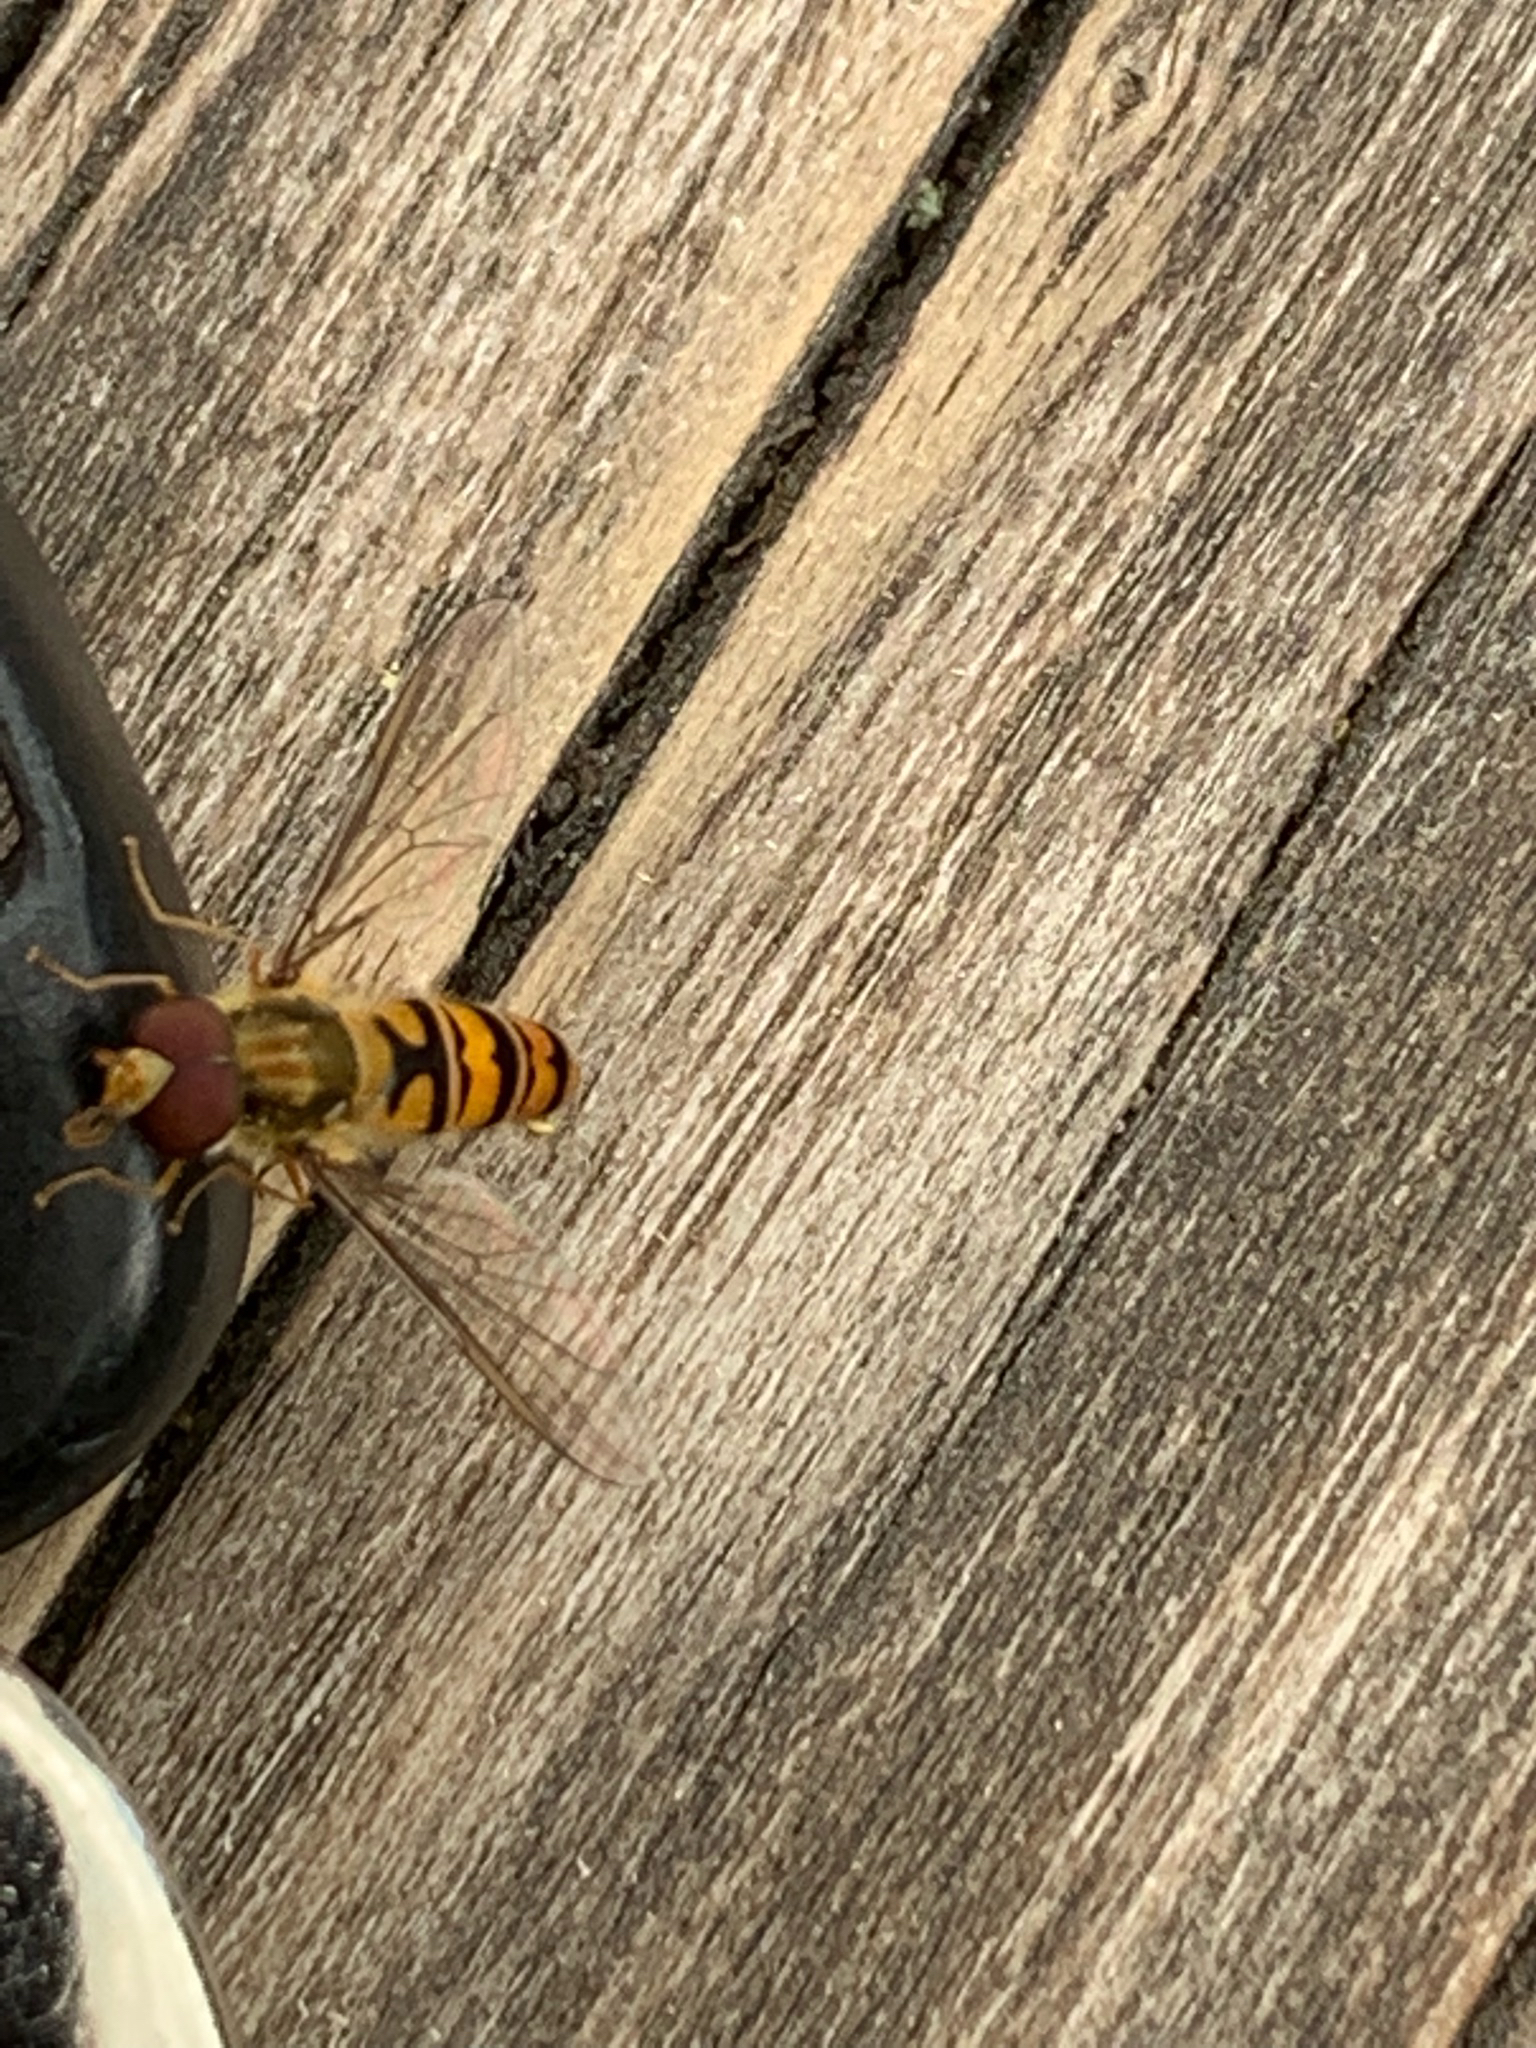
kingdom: Animalia
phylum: Arthropoda
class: Insecta
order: Diptera
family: Syrphidae
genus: Episyrphus
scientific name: Episyrphus balteatus
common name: Marmalade hoverfly
